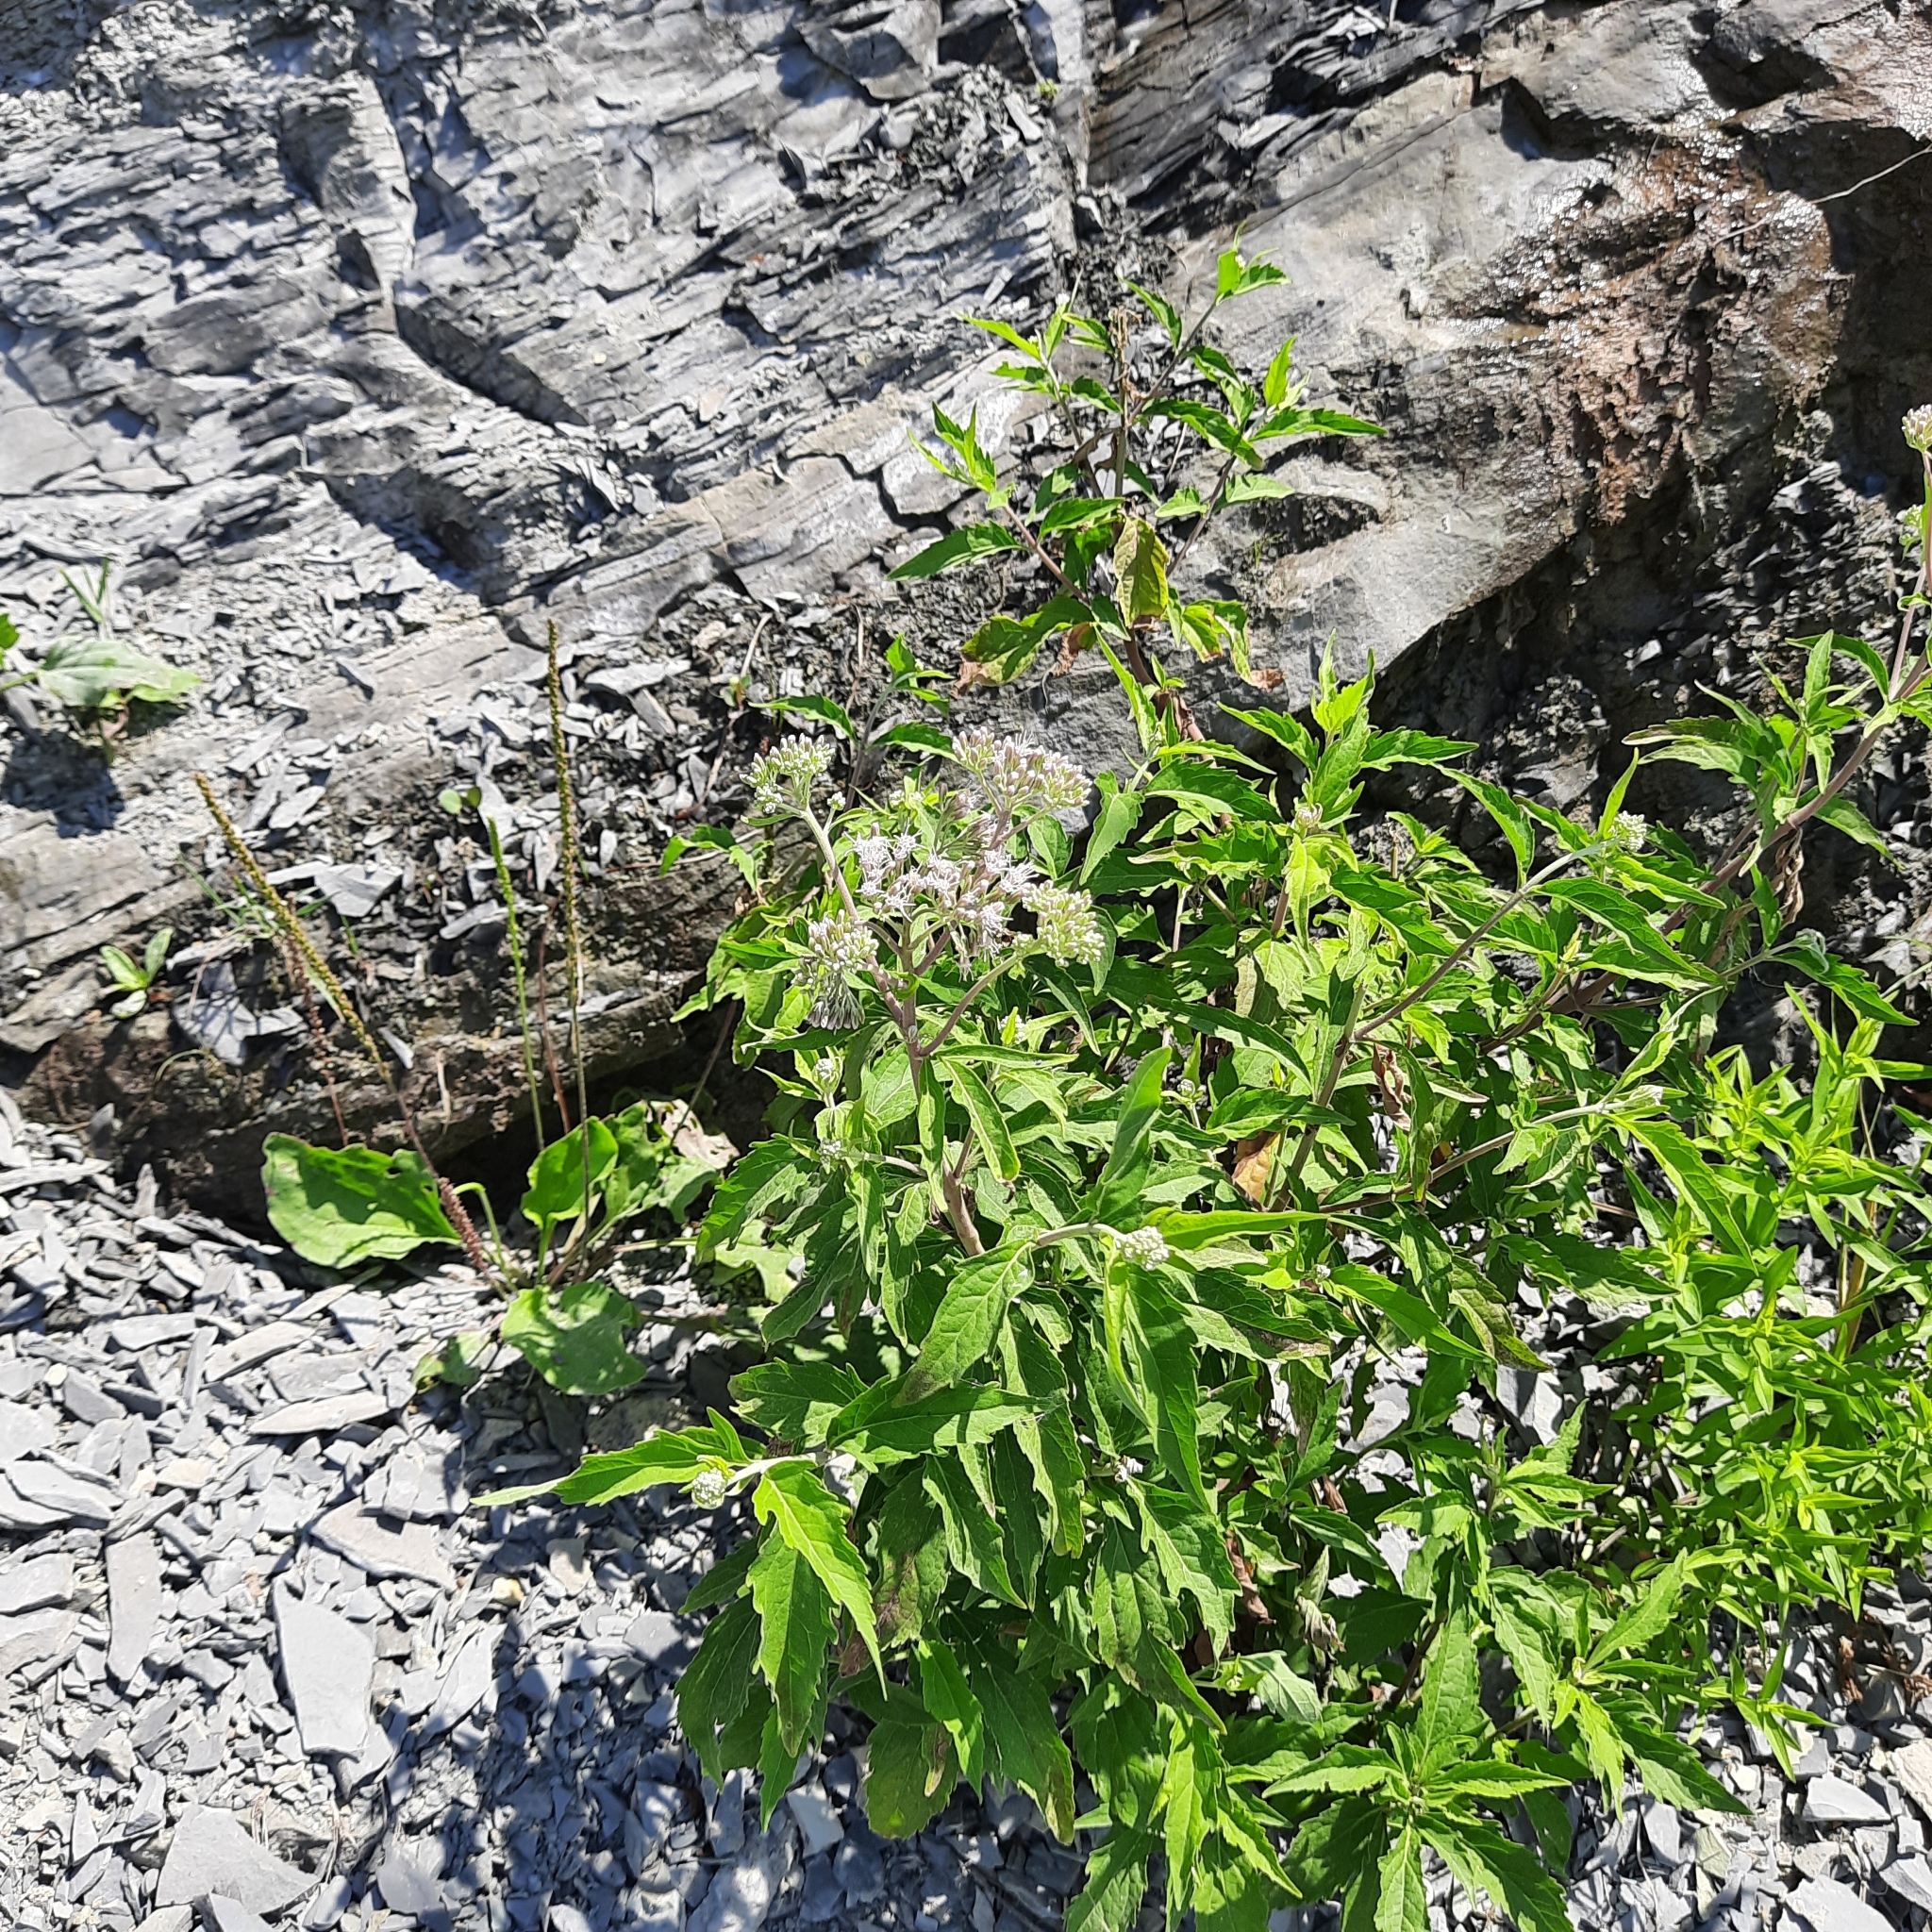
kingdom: Plantae
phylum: Tracheophyta
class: Magnoliopsida
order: Asterales
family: Asteraceae
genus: Eupatorium
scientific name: Eupatorium cannabinum
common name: Hemp-agrimony
